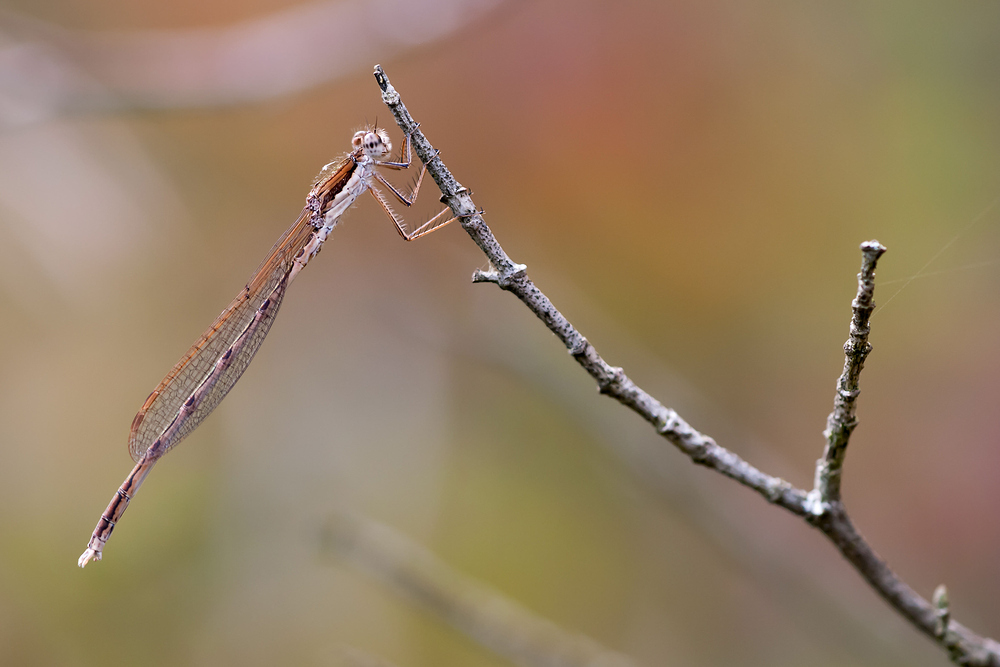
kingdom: Animalia
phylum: Arthropoda
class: Insecta
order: Odonata
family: Lestidae
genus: Sympecma
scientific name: Sympecma fusca
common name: Common winter damsel
